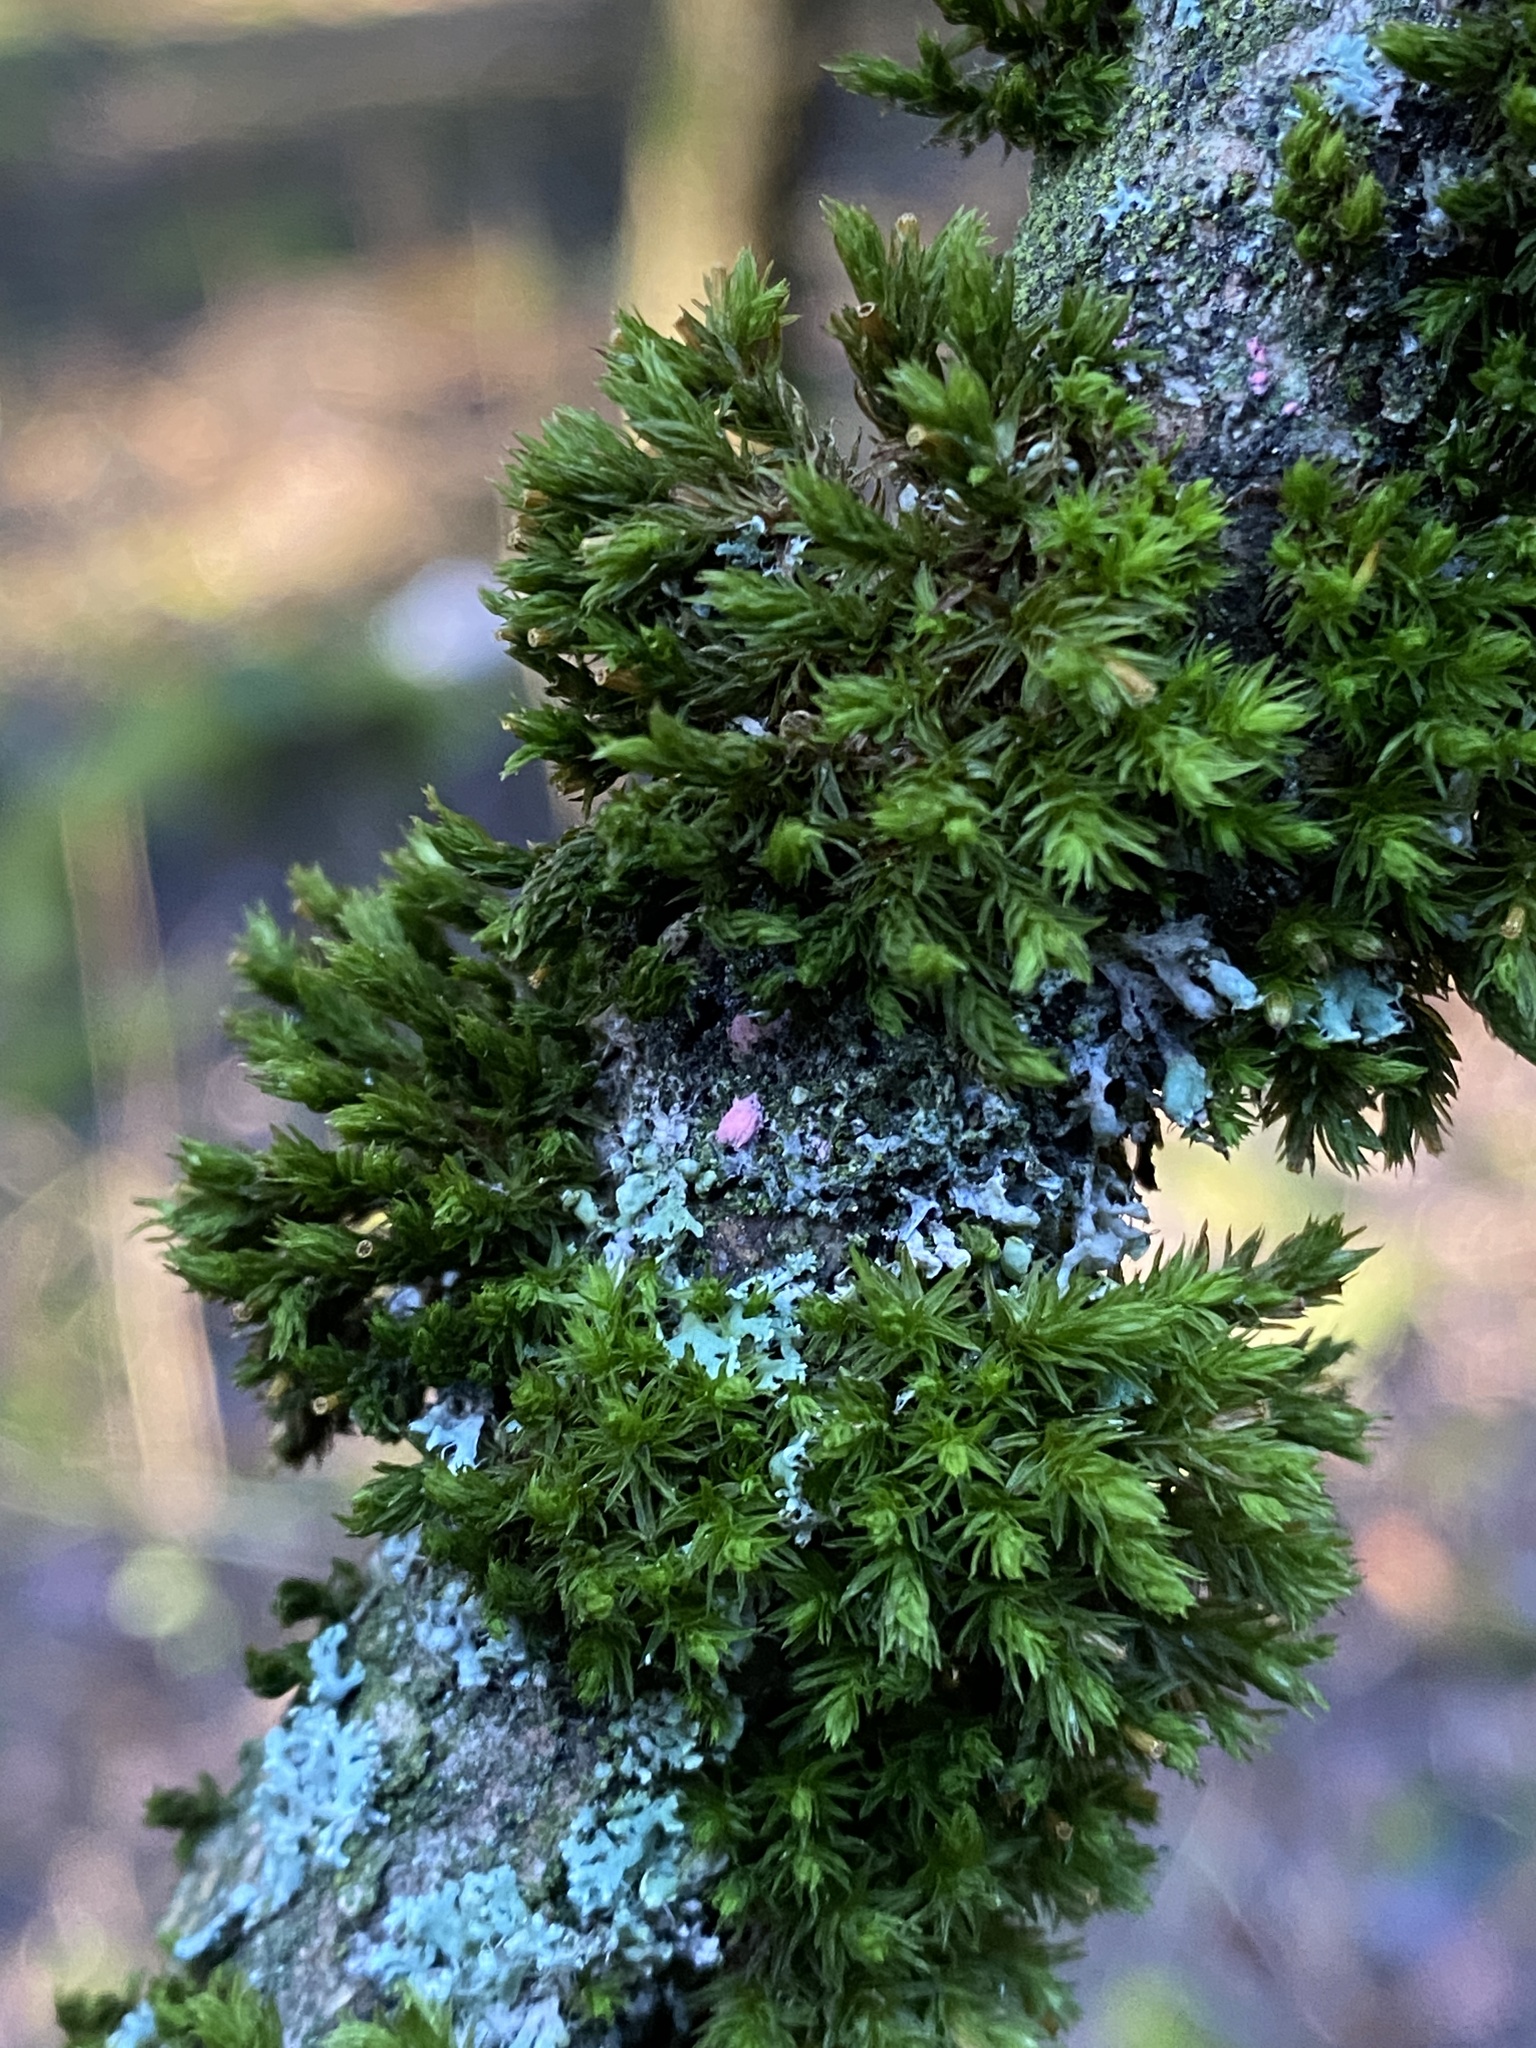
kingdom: Fungi
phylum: Ascomycota
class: Sordariomycetes
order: Hypocreales
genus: Illosporiopsis
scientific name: Illosporiopsis christiansenii
